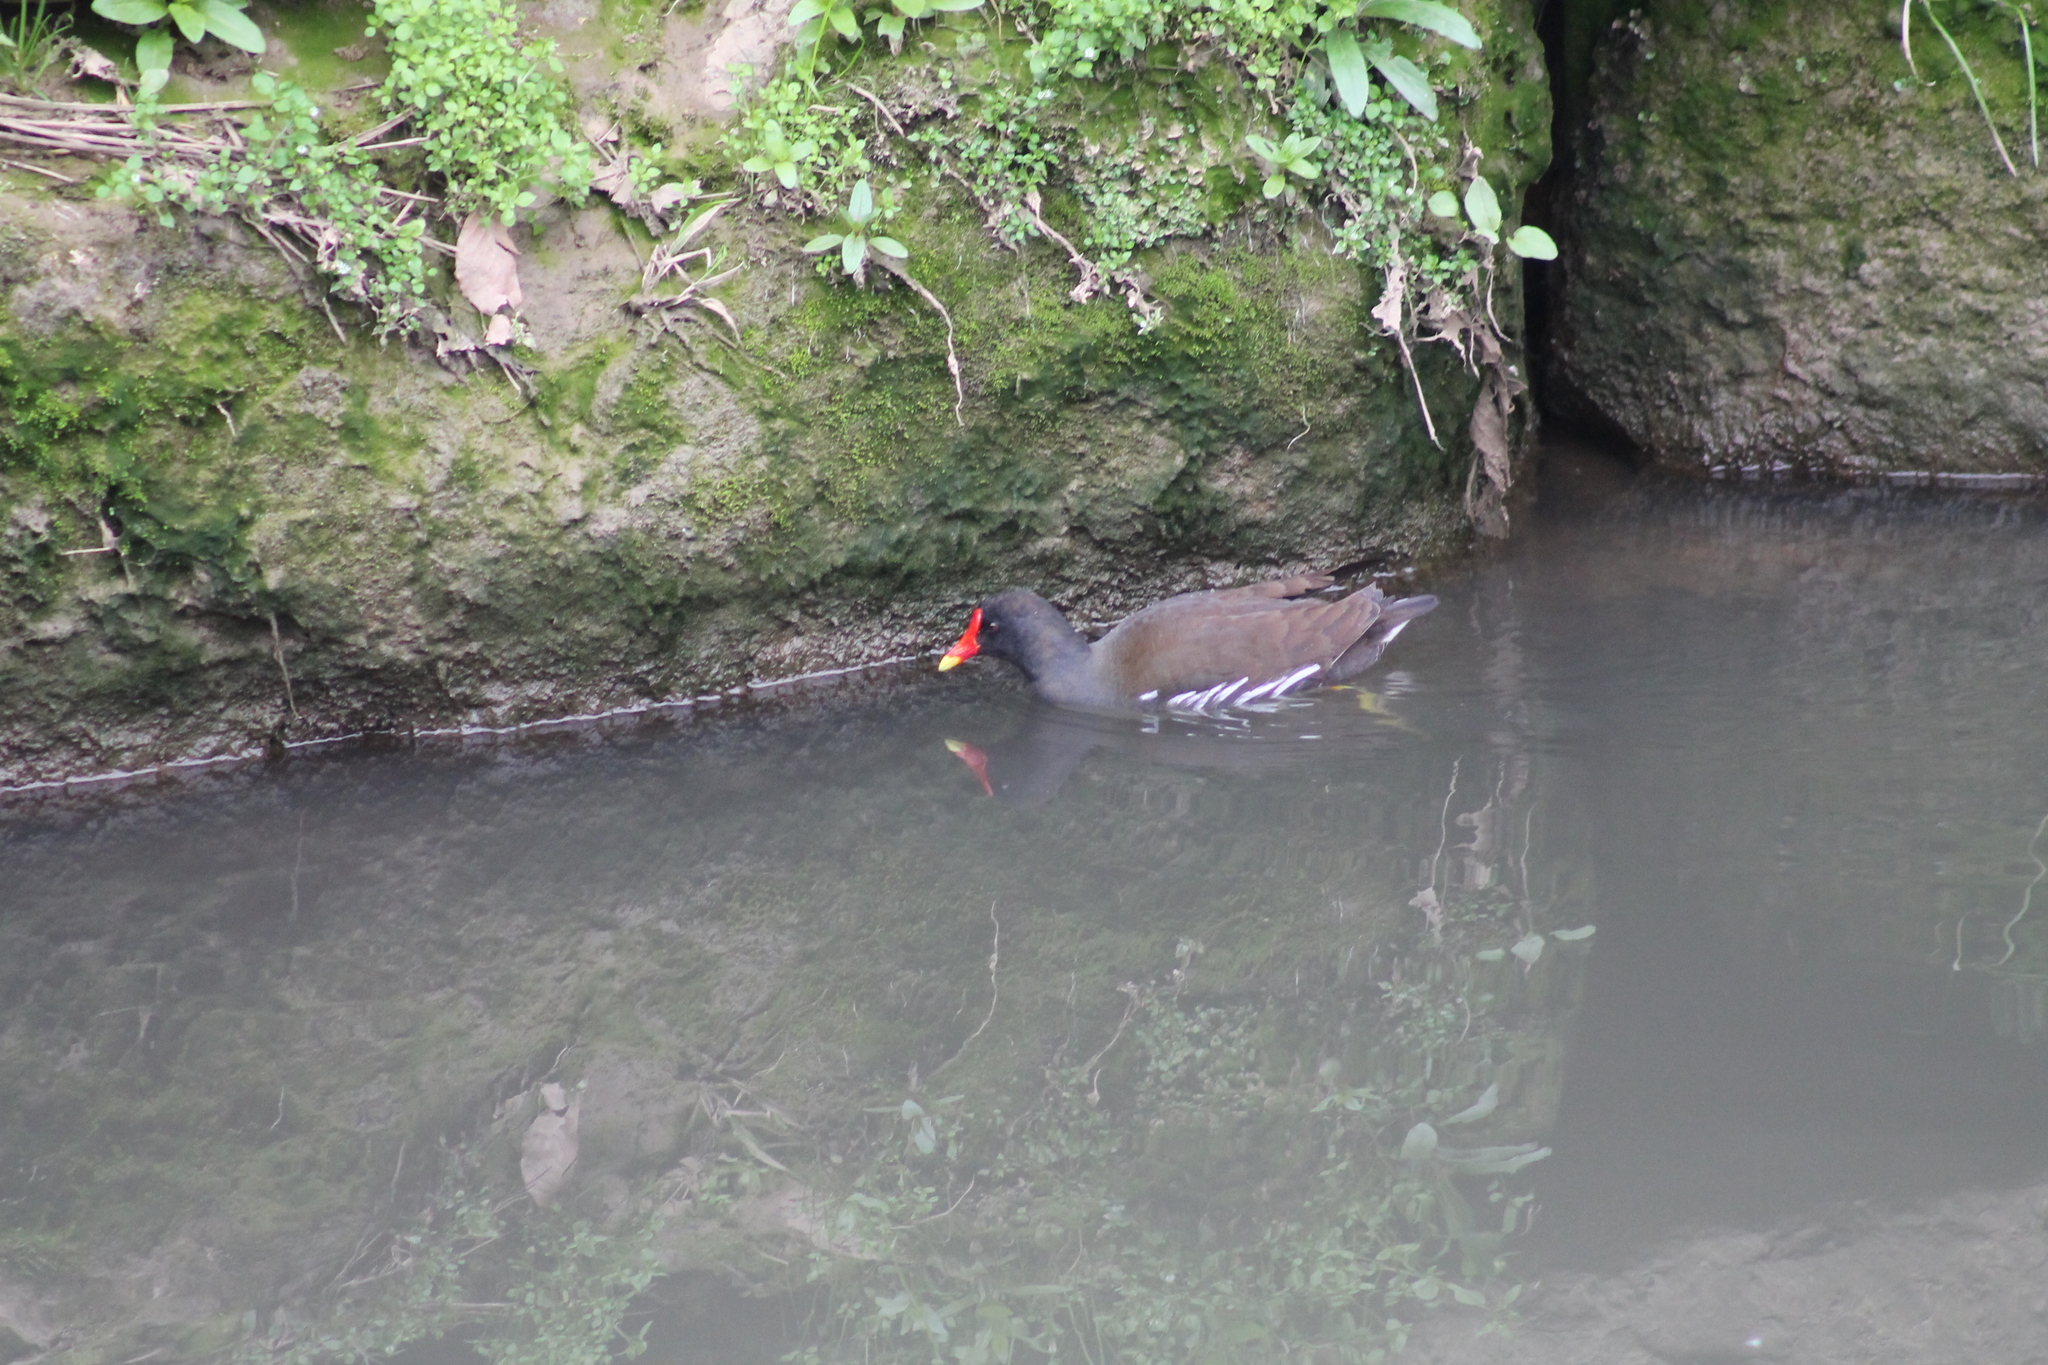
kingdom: Animalia
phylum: Chordata
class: Aves
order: Gruiformes
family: Rallidae
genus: Gallinula
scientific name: Gallinula chloropus
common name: Common moorhen
